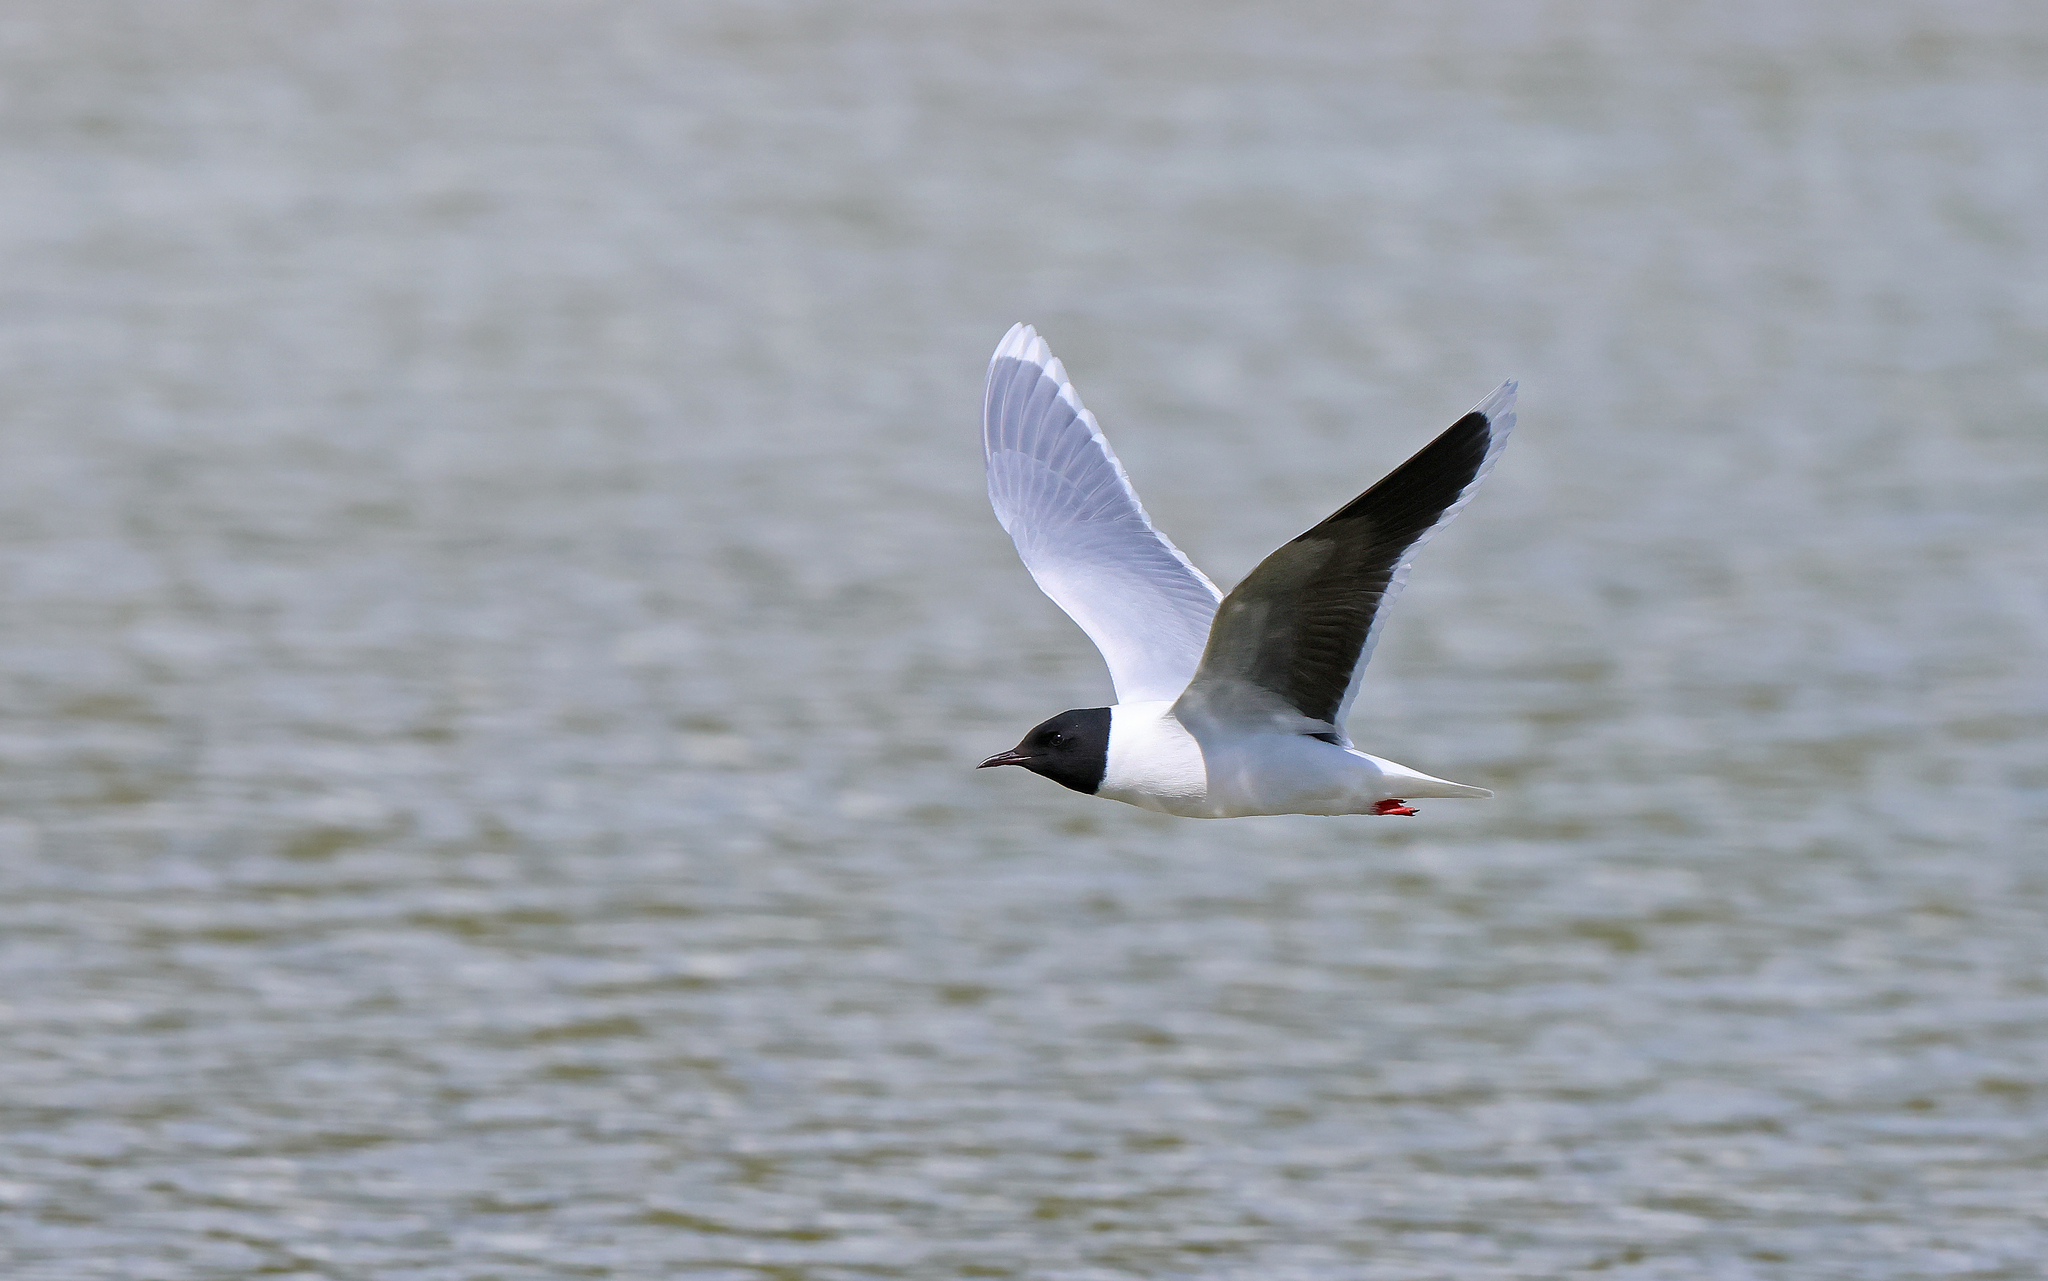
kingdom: Animalia
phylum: Chordata
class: Aves
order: Charadriiformes
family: Laridae
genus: Hydrocoloeus
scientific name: Hydrocoloeus minutus
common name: Little gull
